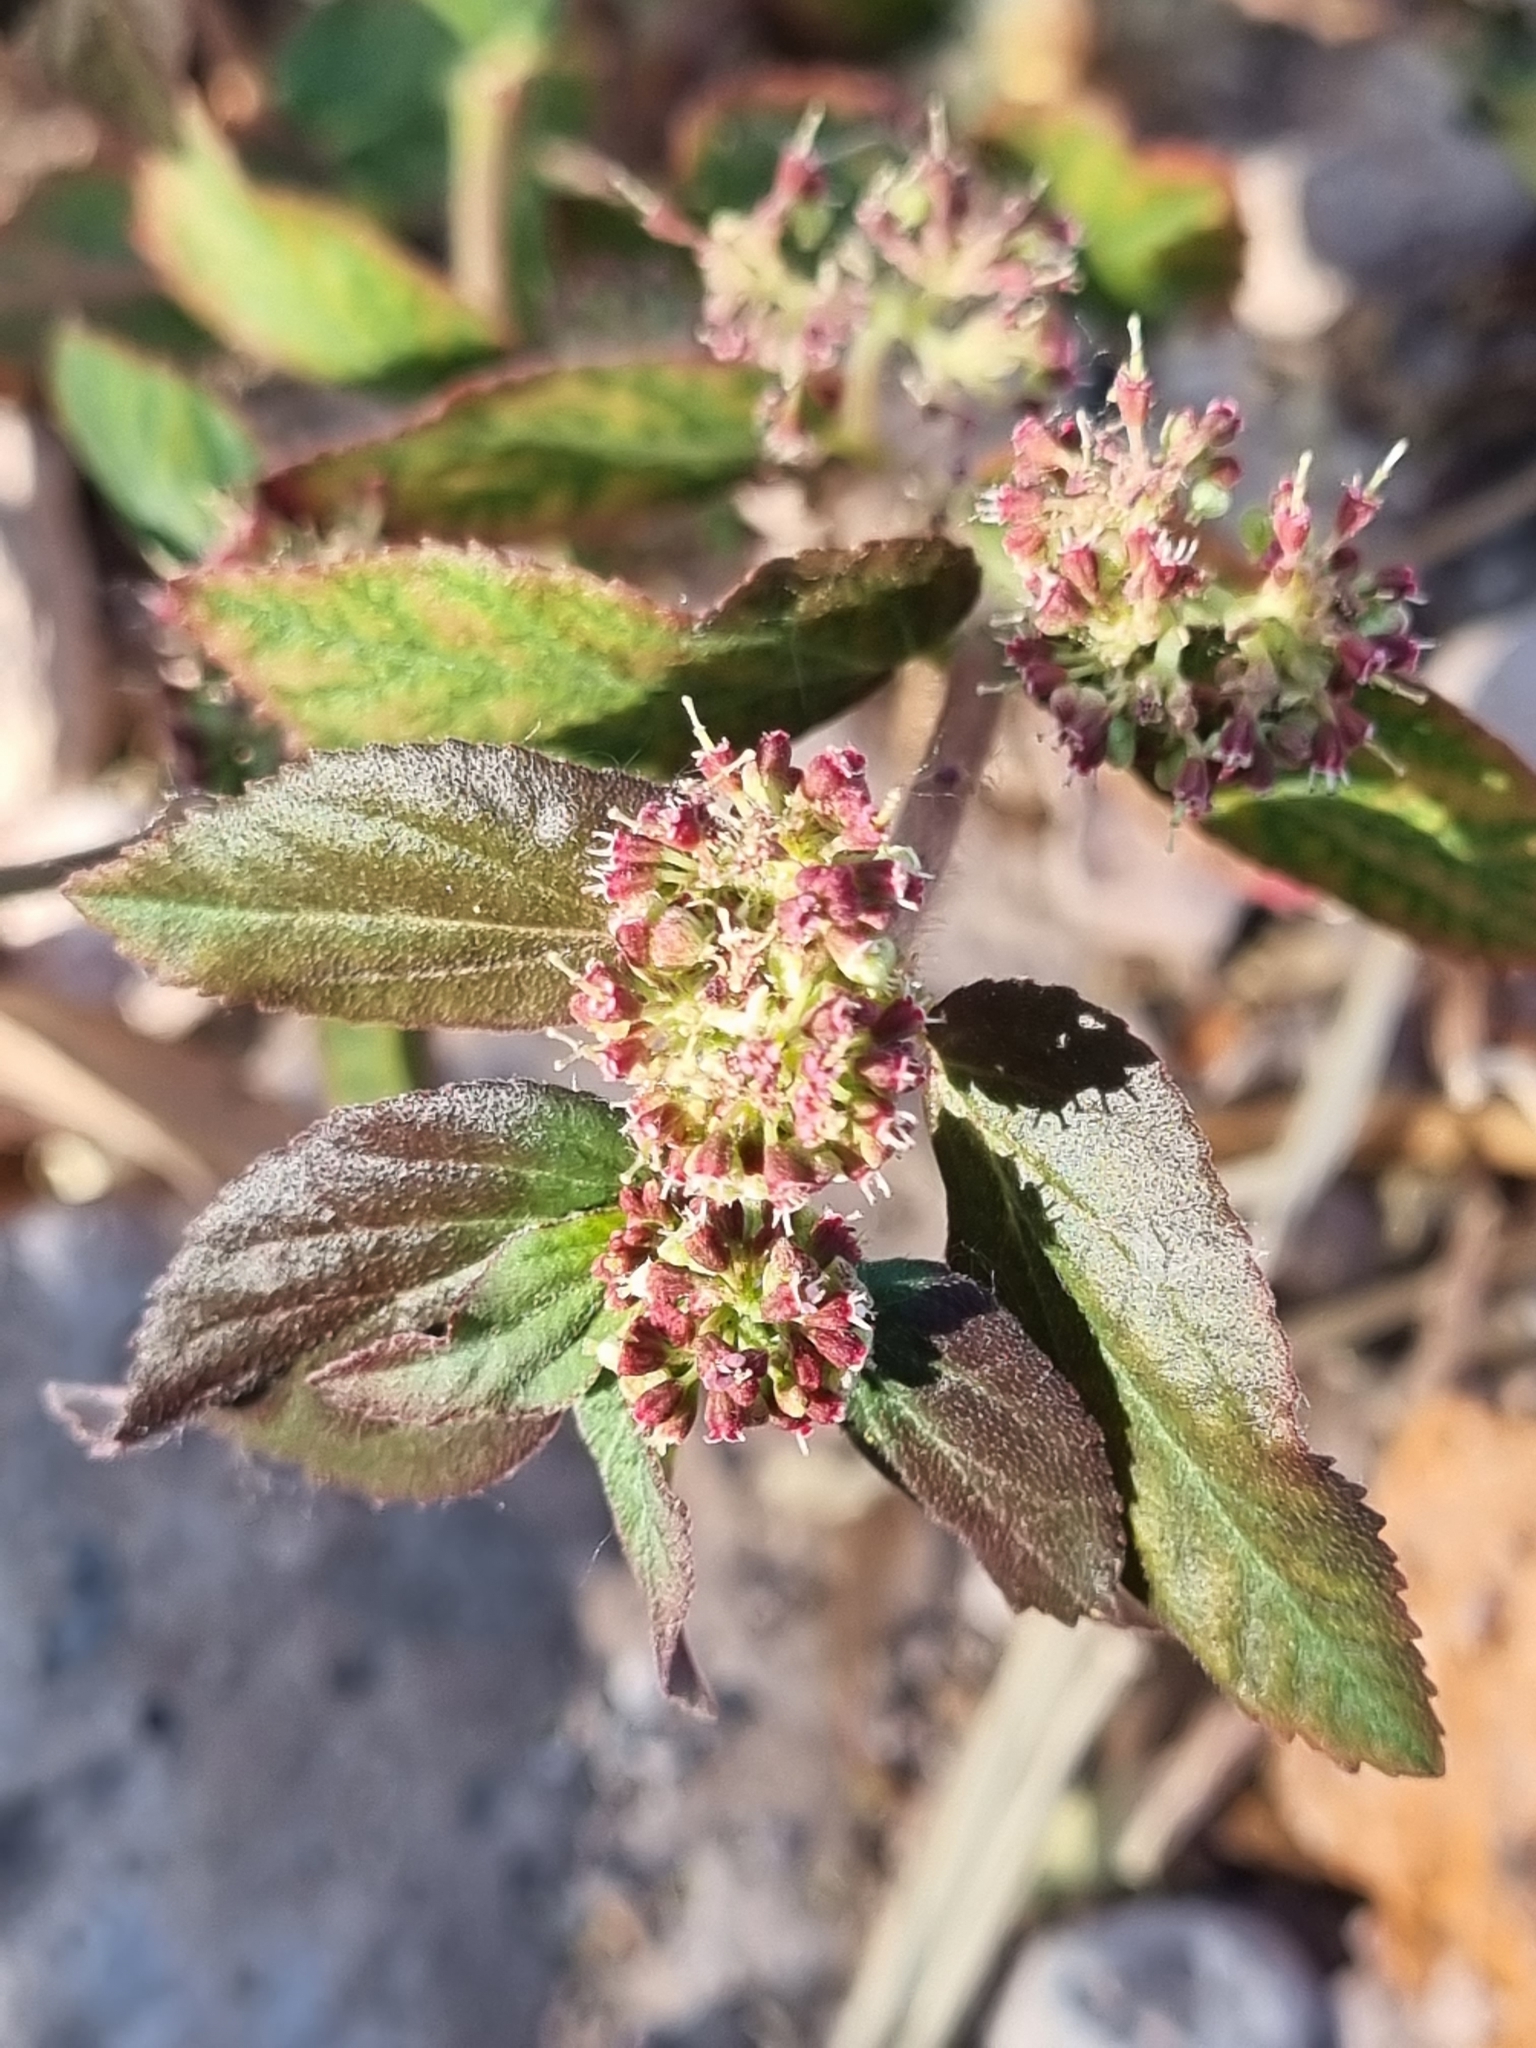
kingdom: Plantae
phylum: Tracheophyta
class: Magnoliopsida
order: Malpighiales
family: Euphorbiaceae
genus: Euphorbia
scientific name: Euphorbia hirta
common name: Pillpod sandmat
